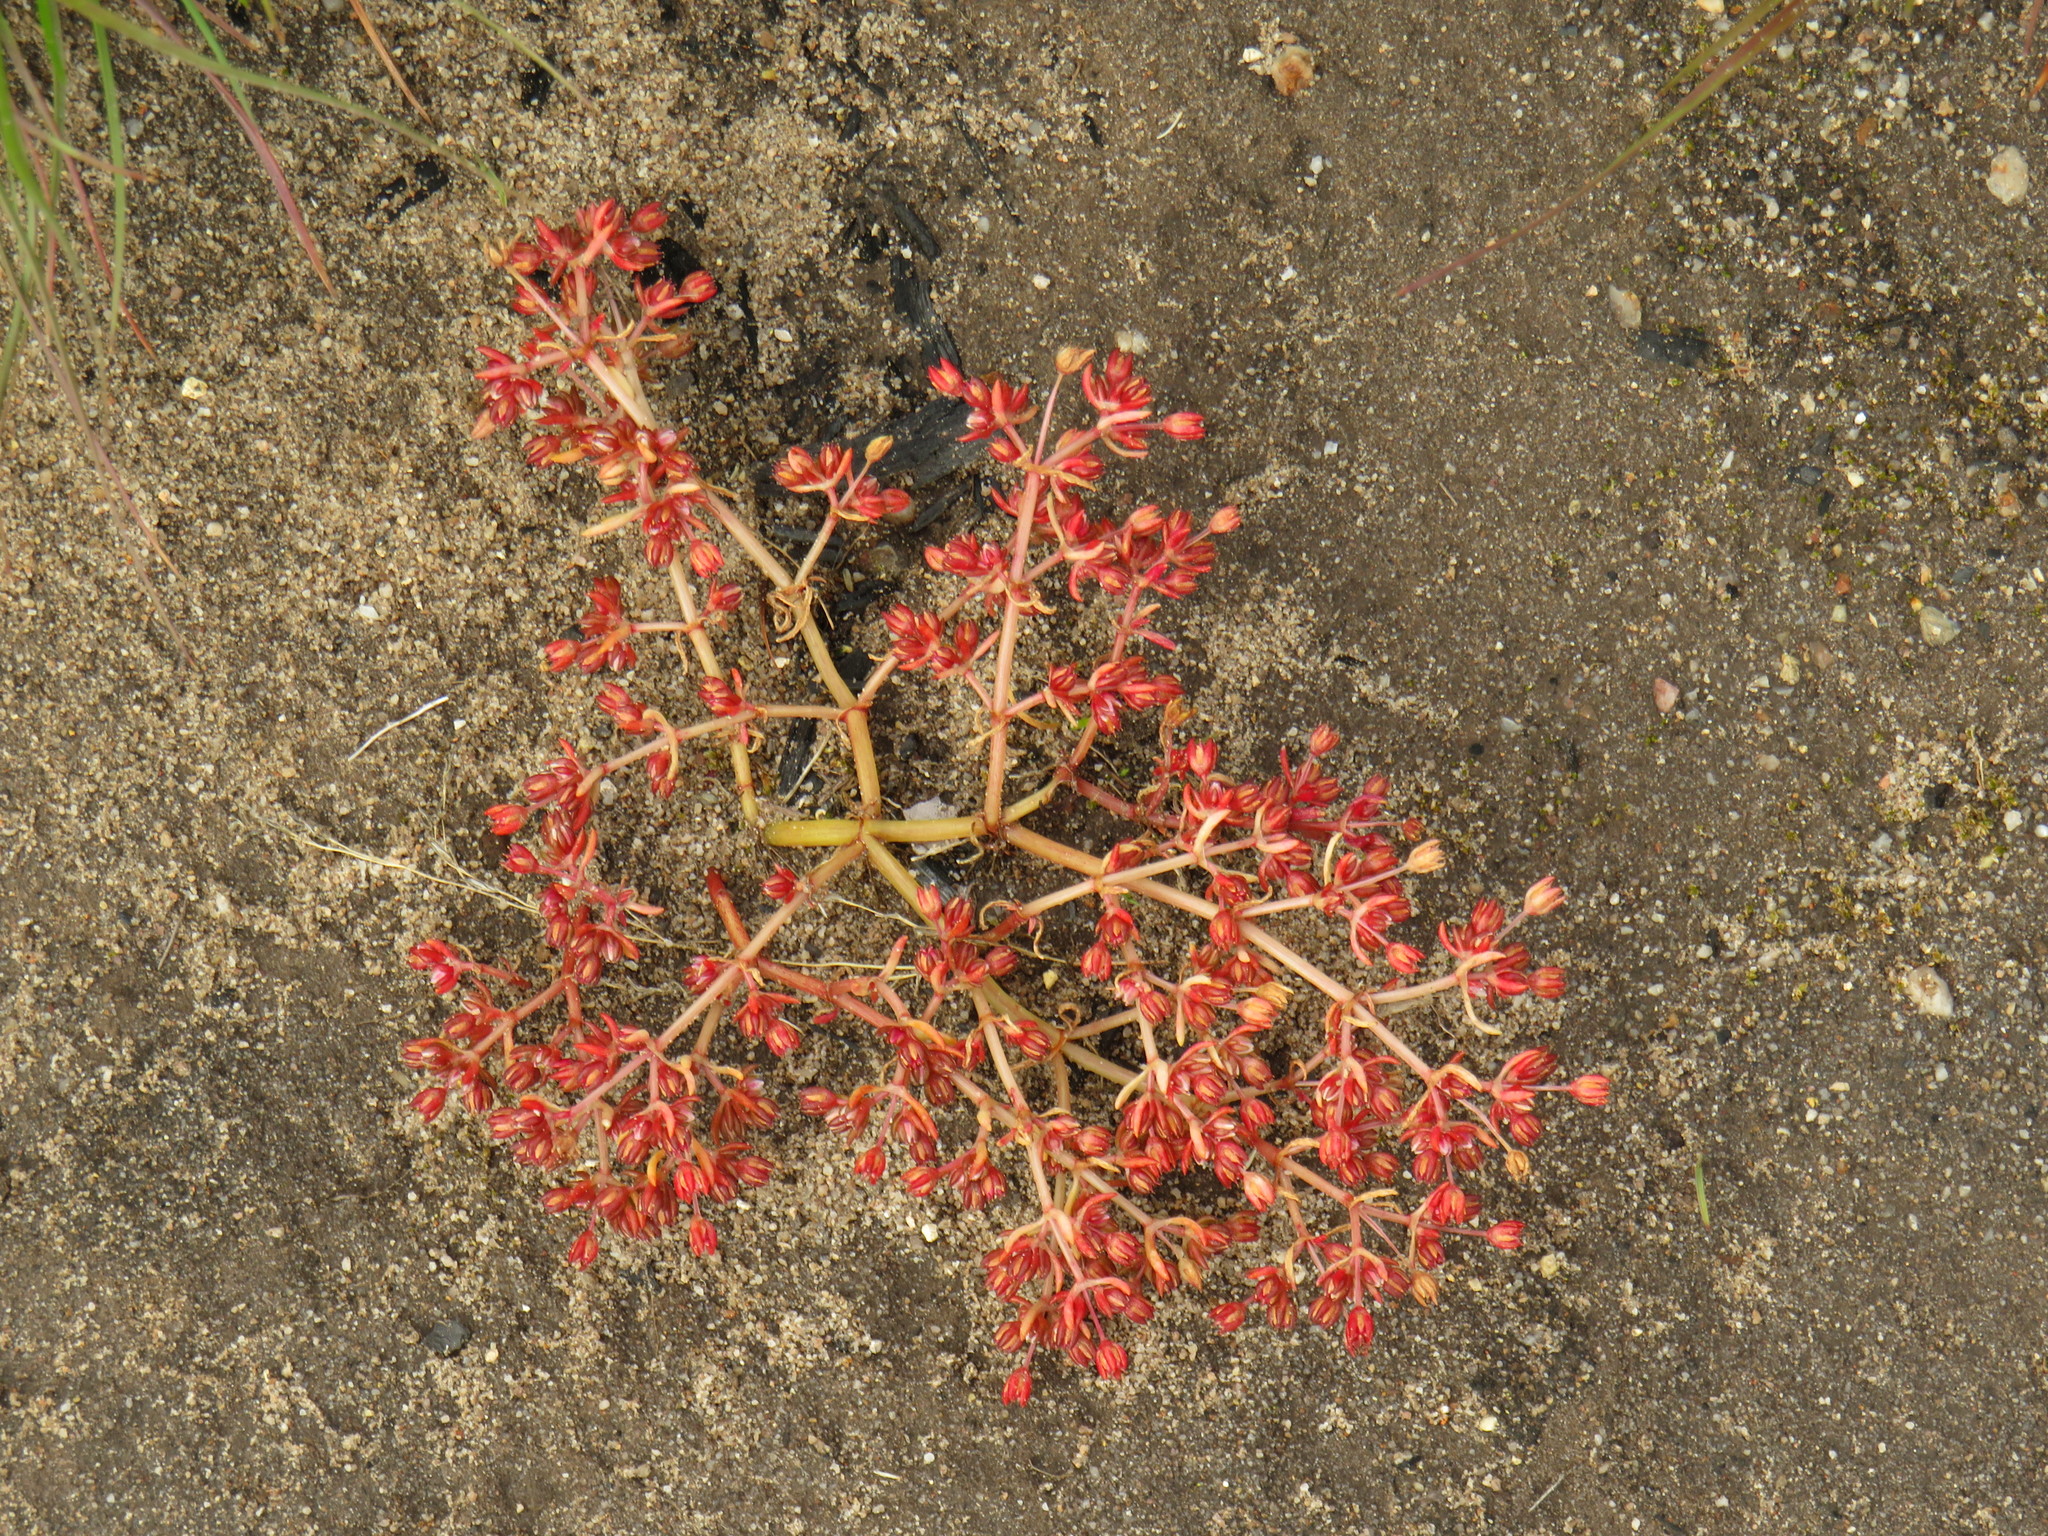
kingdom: Plantae
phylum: Tracheophyta
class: Magnoliopsida
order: Saxifragales
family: Crassulaceae
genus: Crassula
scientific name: Crassula decumbens
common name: Scilly pigmyweed
